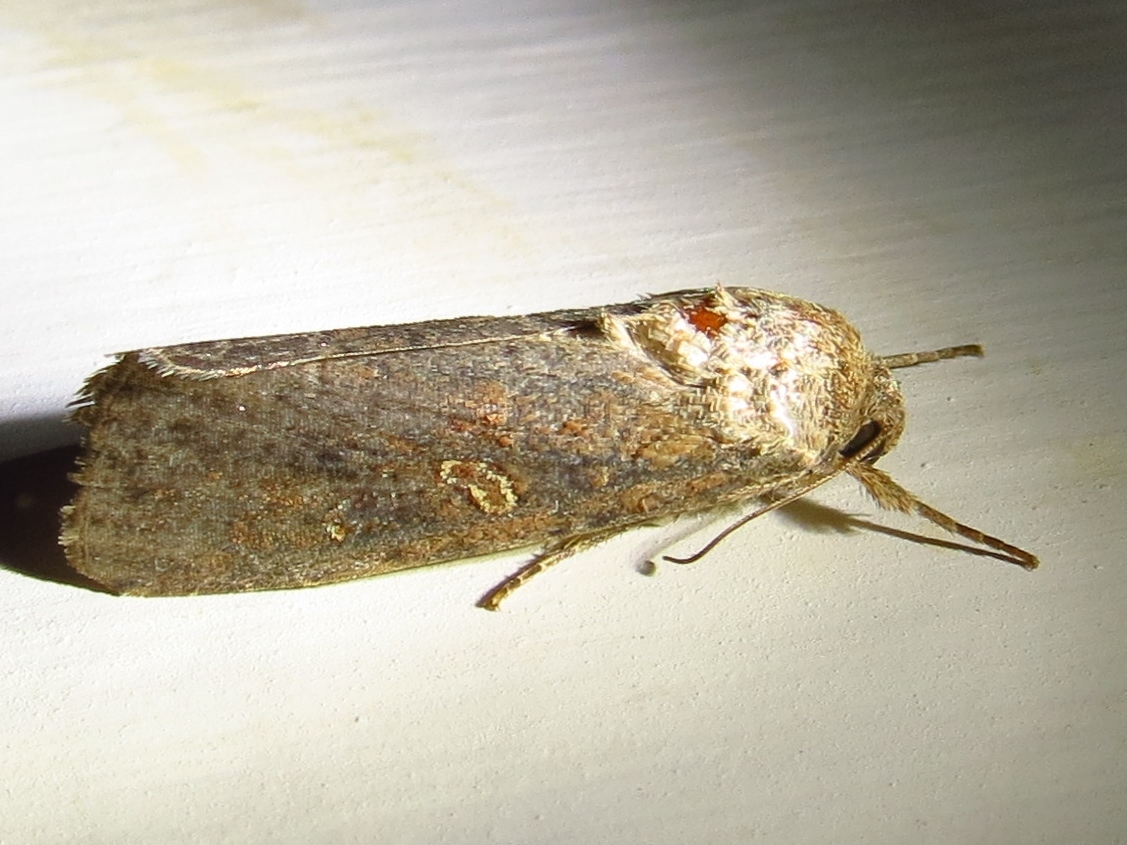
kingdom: Animalia
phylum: Arthropoda
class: Insecta
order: Lepidoptera
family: Noctuidae
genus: Spodoptera
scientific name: Spodoptera frugiperda
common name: Fall armyworm
